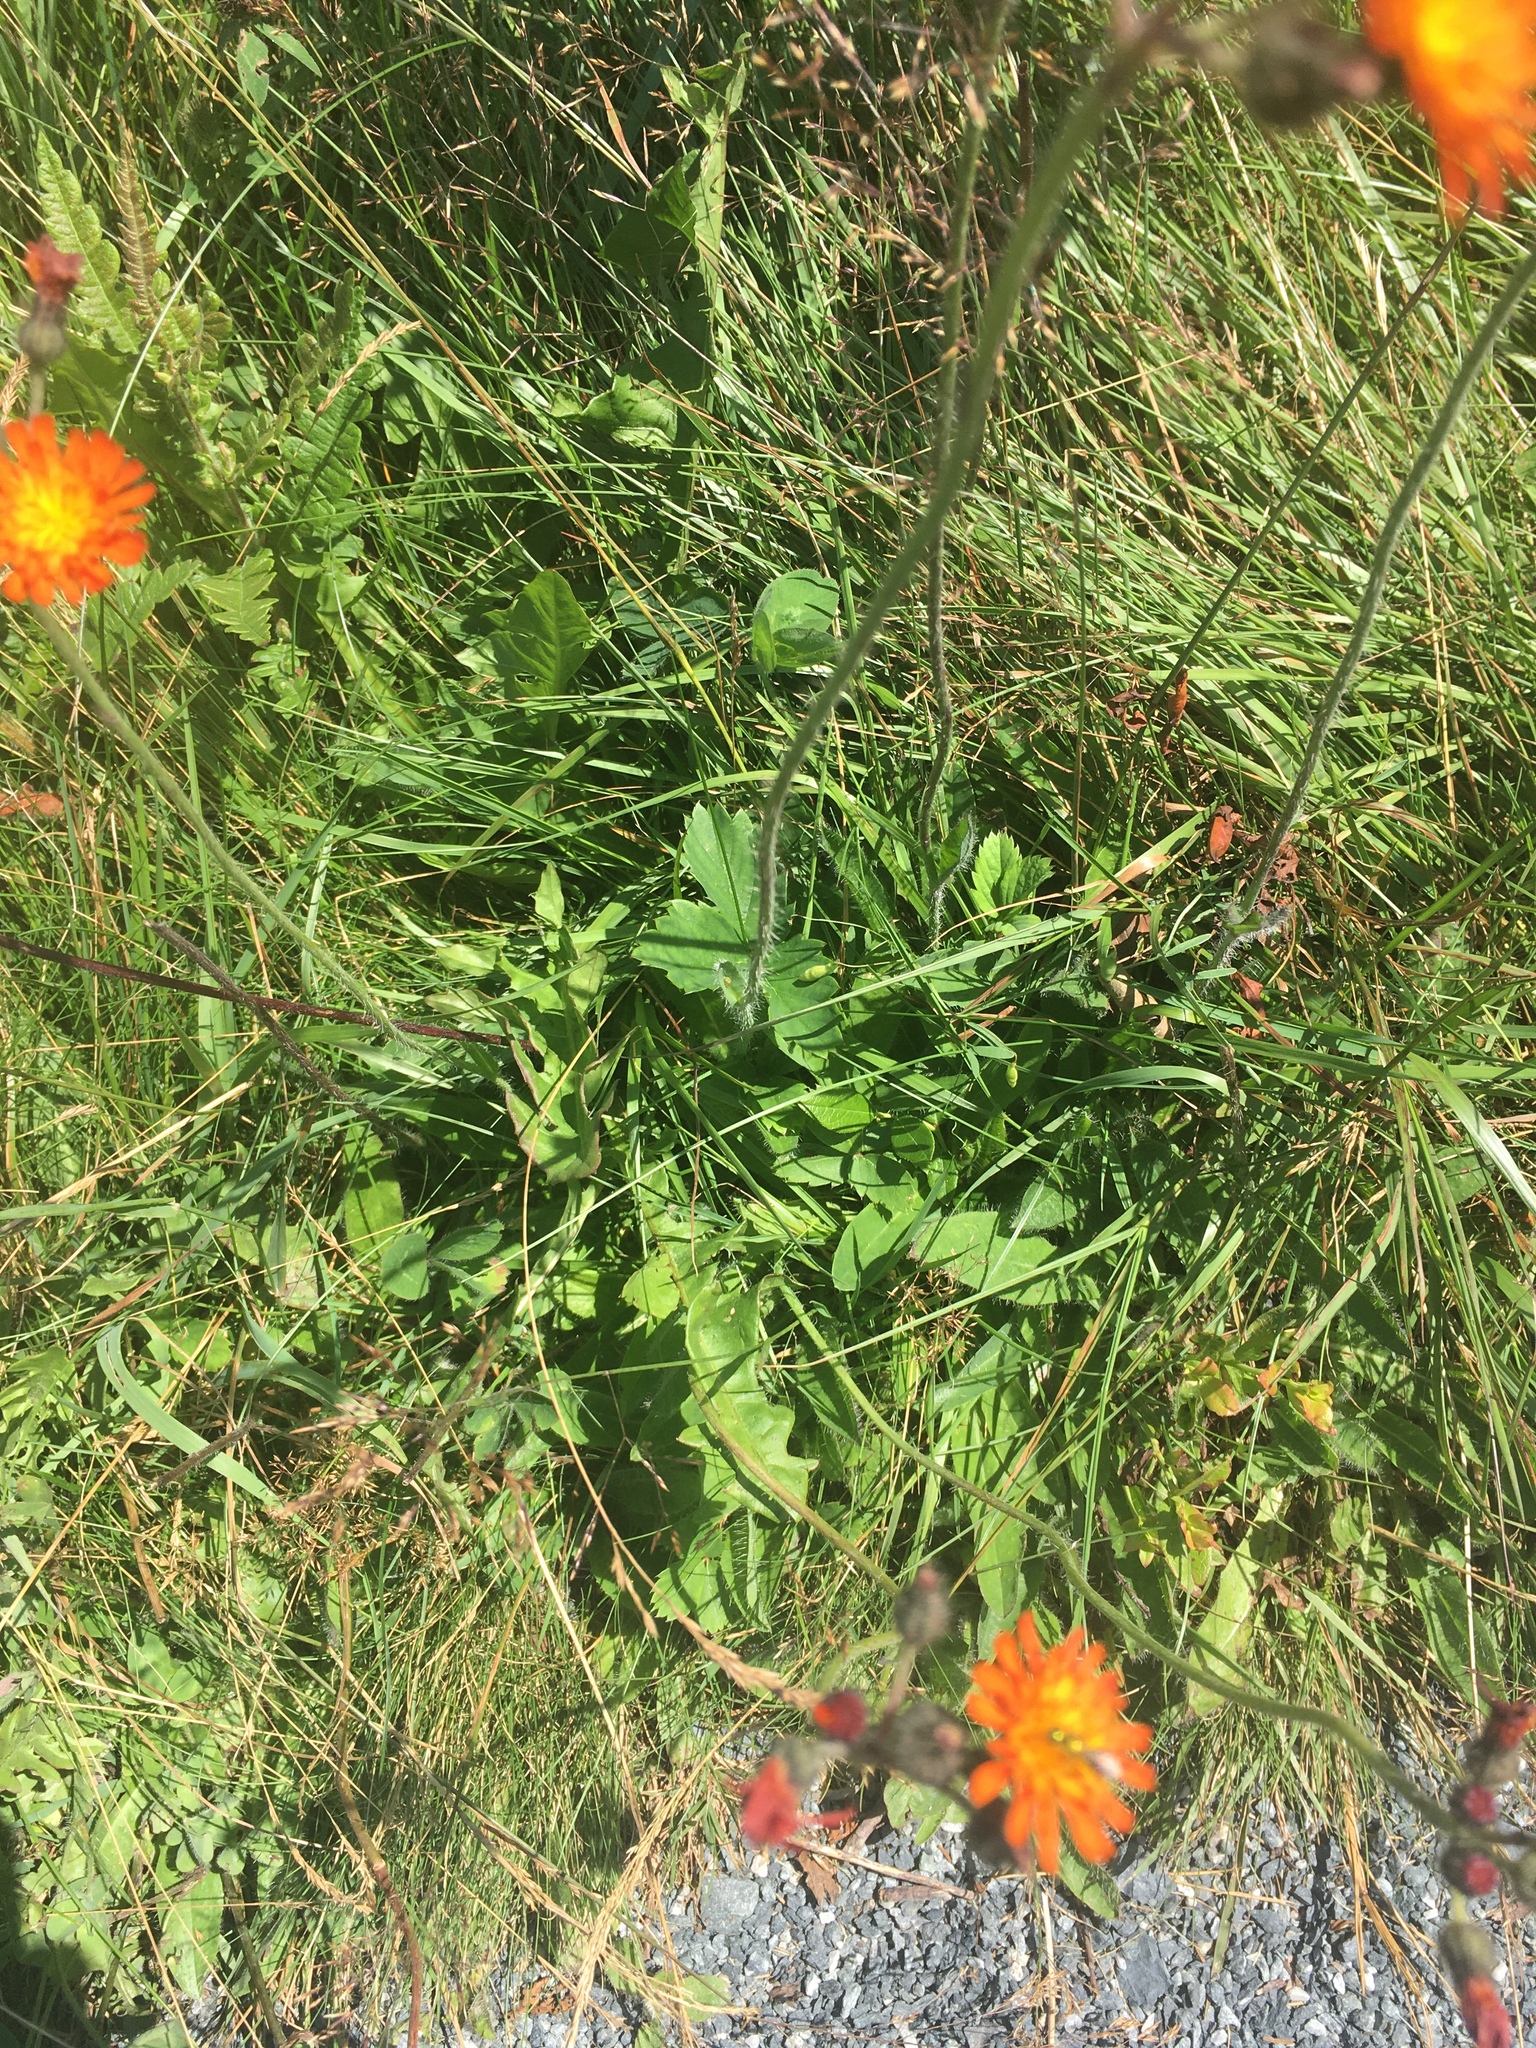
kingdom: Plantae
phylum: Tracheophyta
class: Magnoliopsida
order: Asterales
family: Asteraceae
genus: Pilosella
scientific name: Pilosella aurantiaca
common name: Fox-and-cubs
